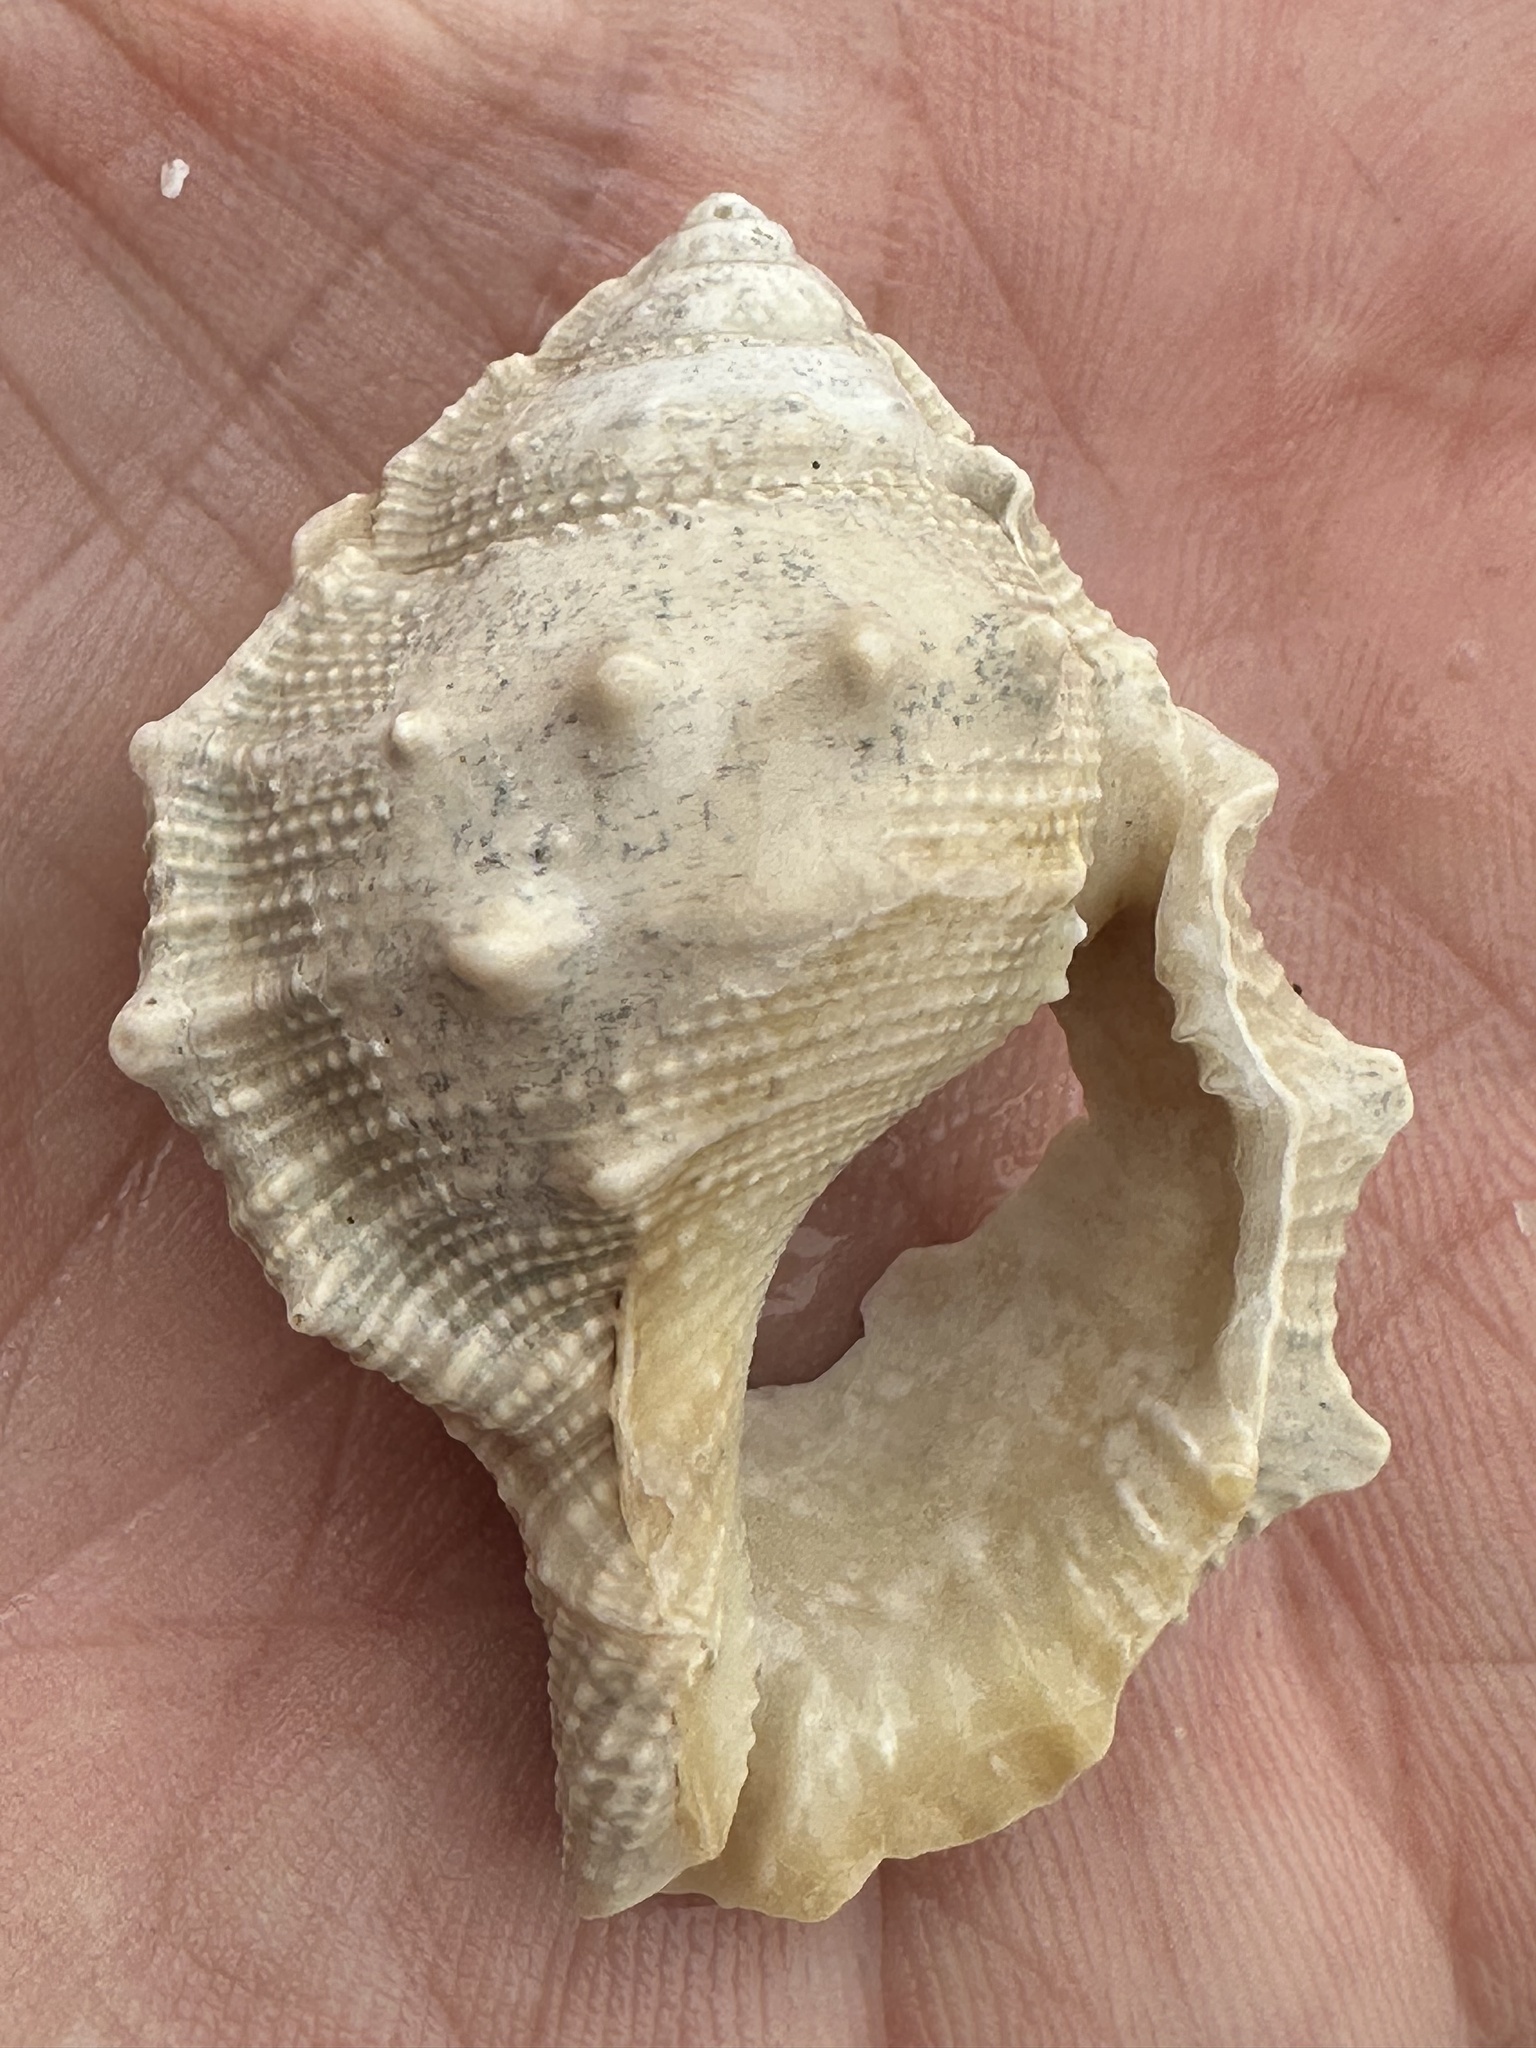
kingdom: Animalia
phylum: Mollusca
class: Gastropoda
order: Littorinimorpha
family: Bursidae
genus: Bufonaria
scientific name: Bufonaria rana
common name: Common frogsnail
